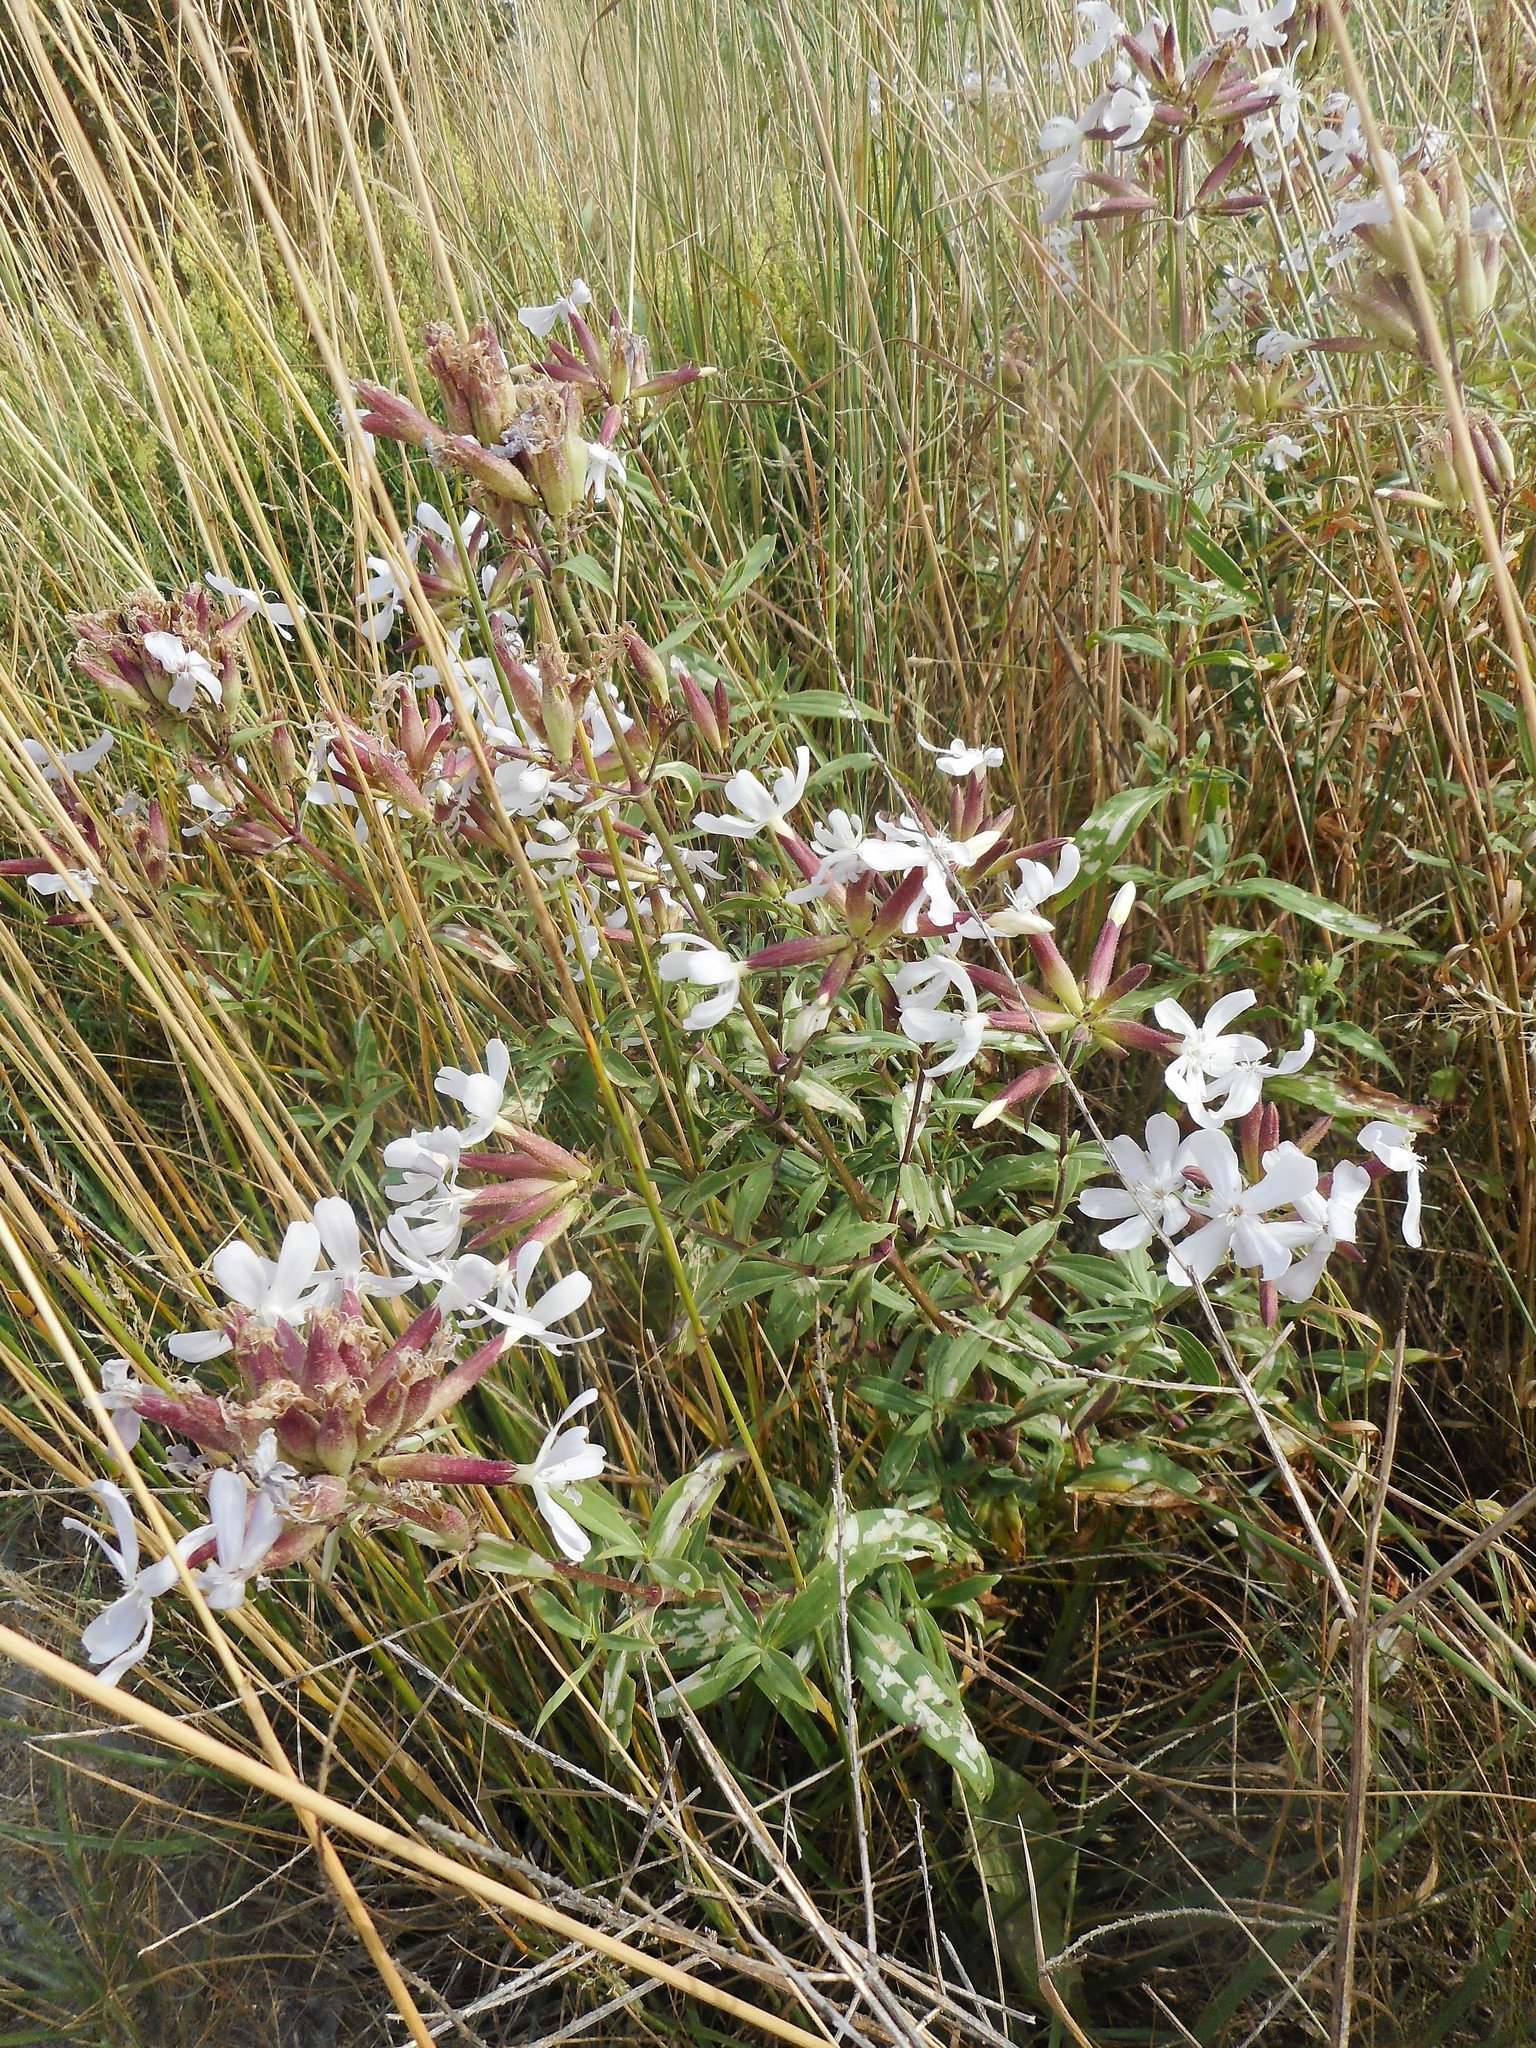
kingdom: Plantae
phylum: Tracheophyta
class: Magnoliopsida
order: Caryophyllales
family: Caryophyllaceae
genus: Saponaria
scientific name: Saponaria officinalis
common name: Soapwort
